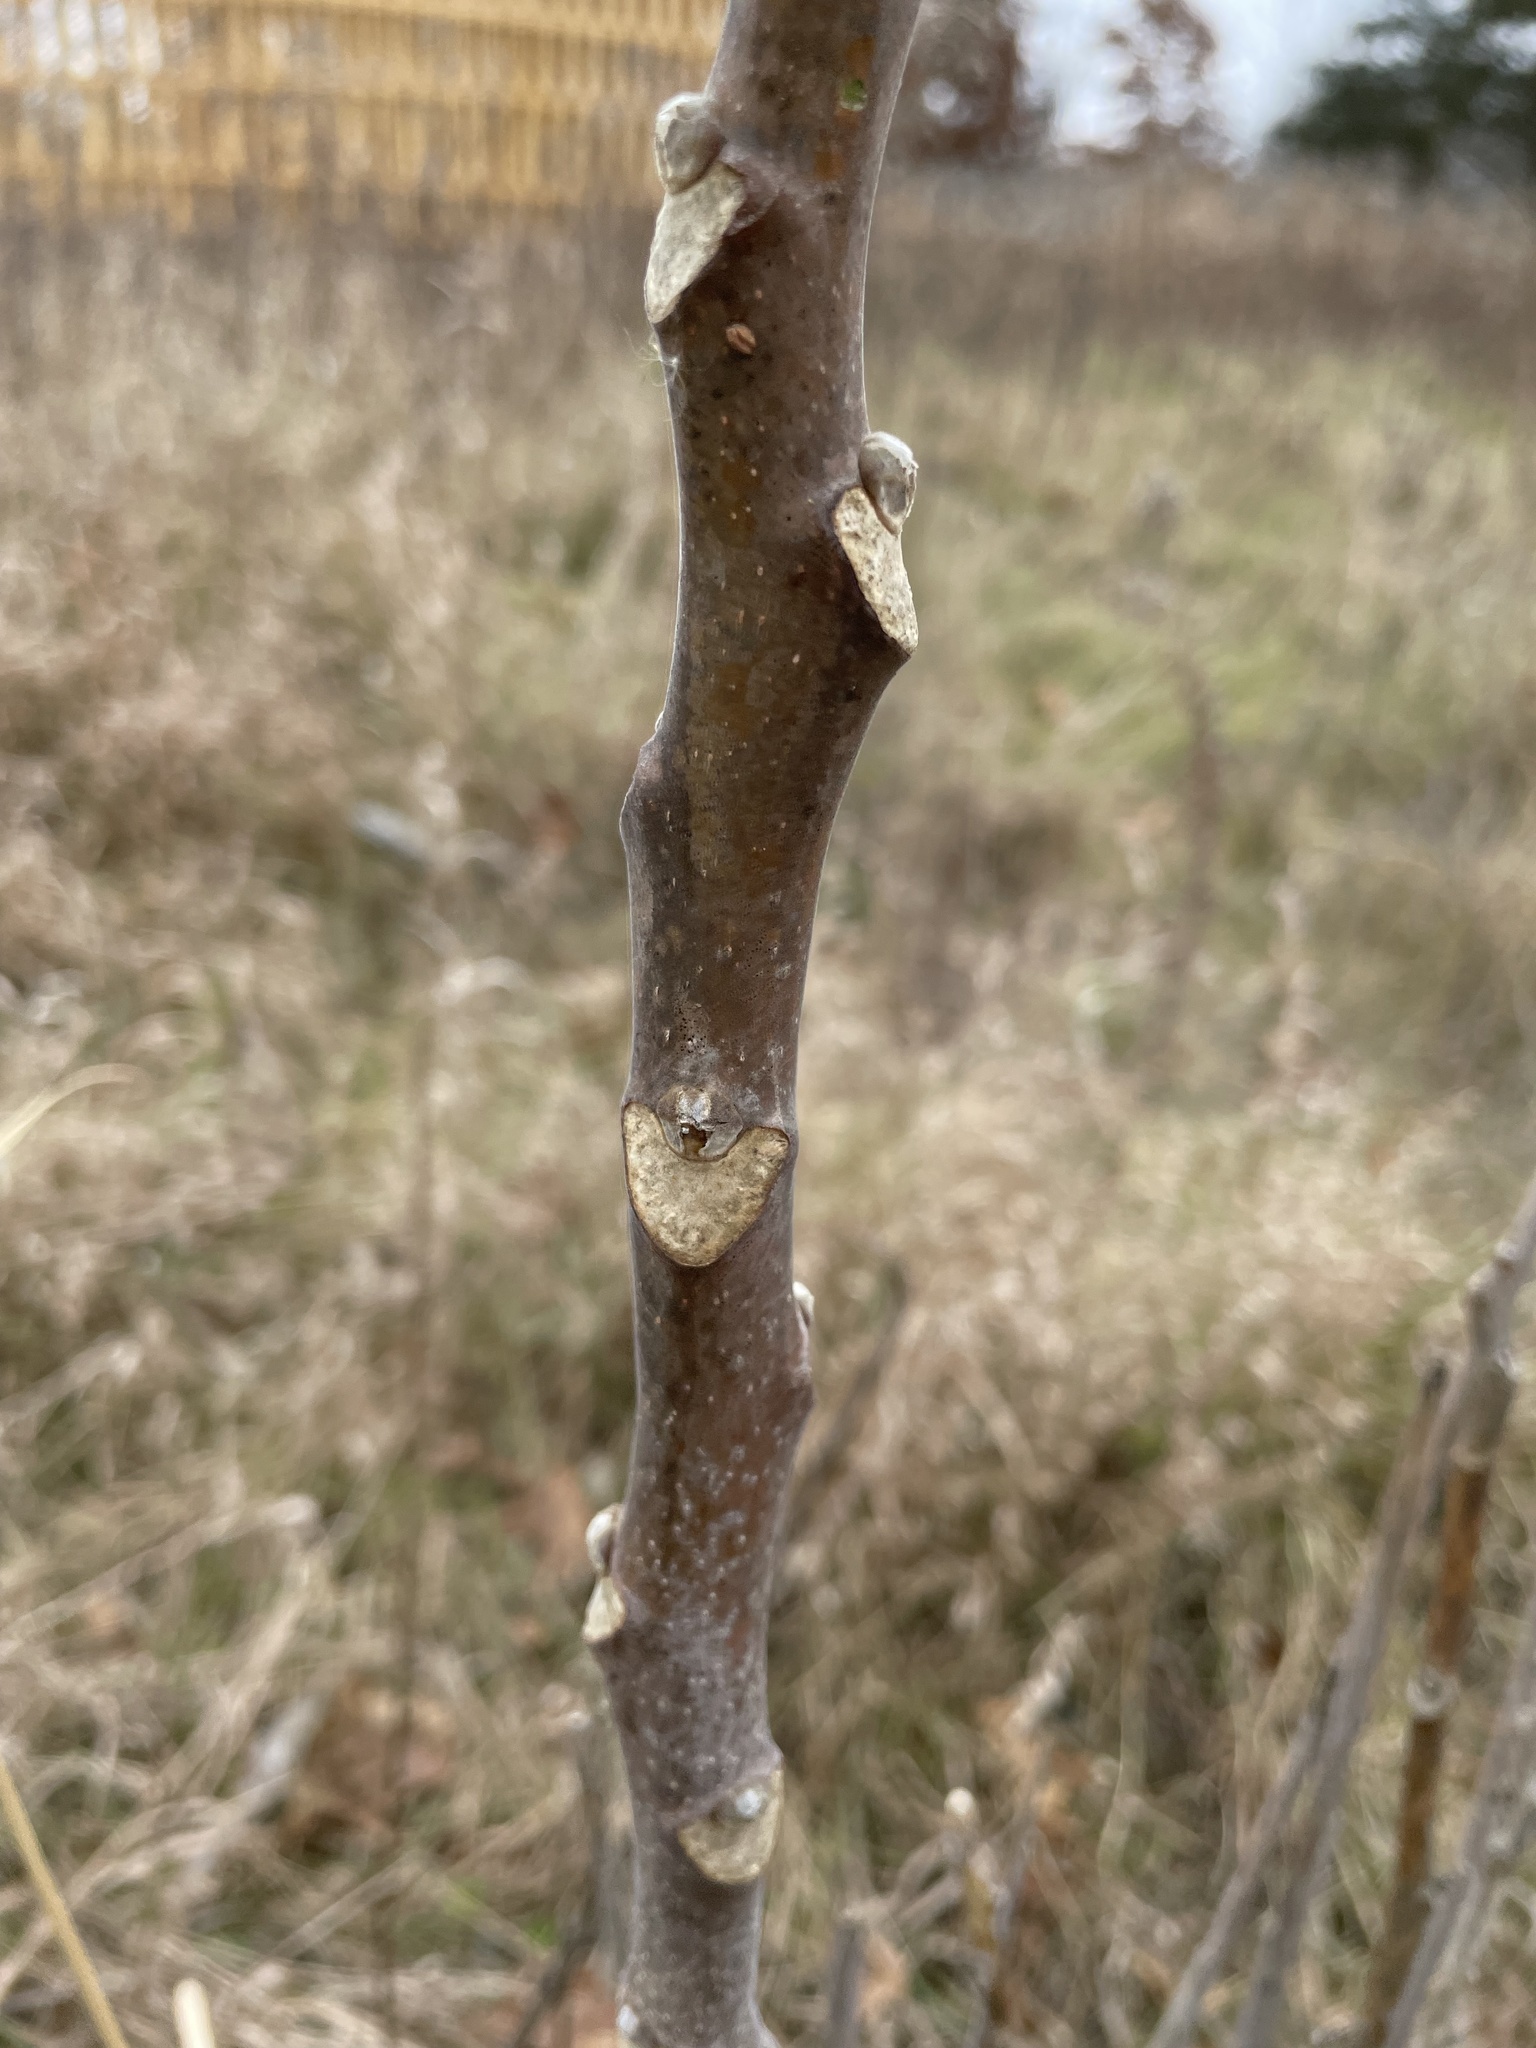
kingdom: Plantae
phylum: Tracheophyta
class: Magnoliopsida
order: Sapindales
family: Simaroubaceae
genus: Ailanthus
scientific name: Ailanthus altissima
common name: Tree-of-heaven
